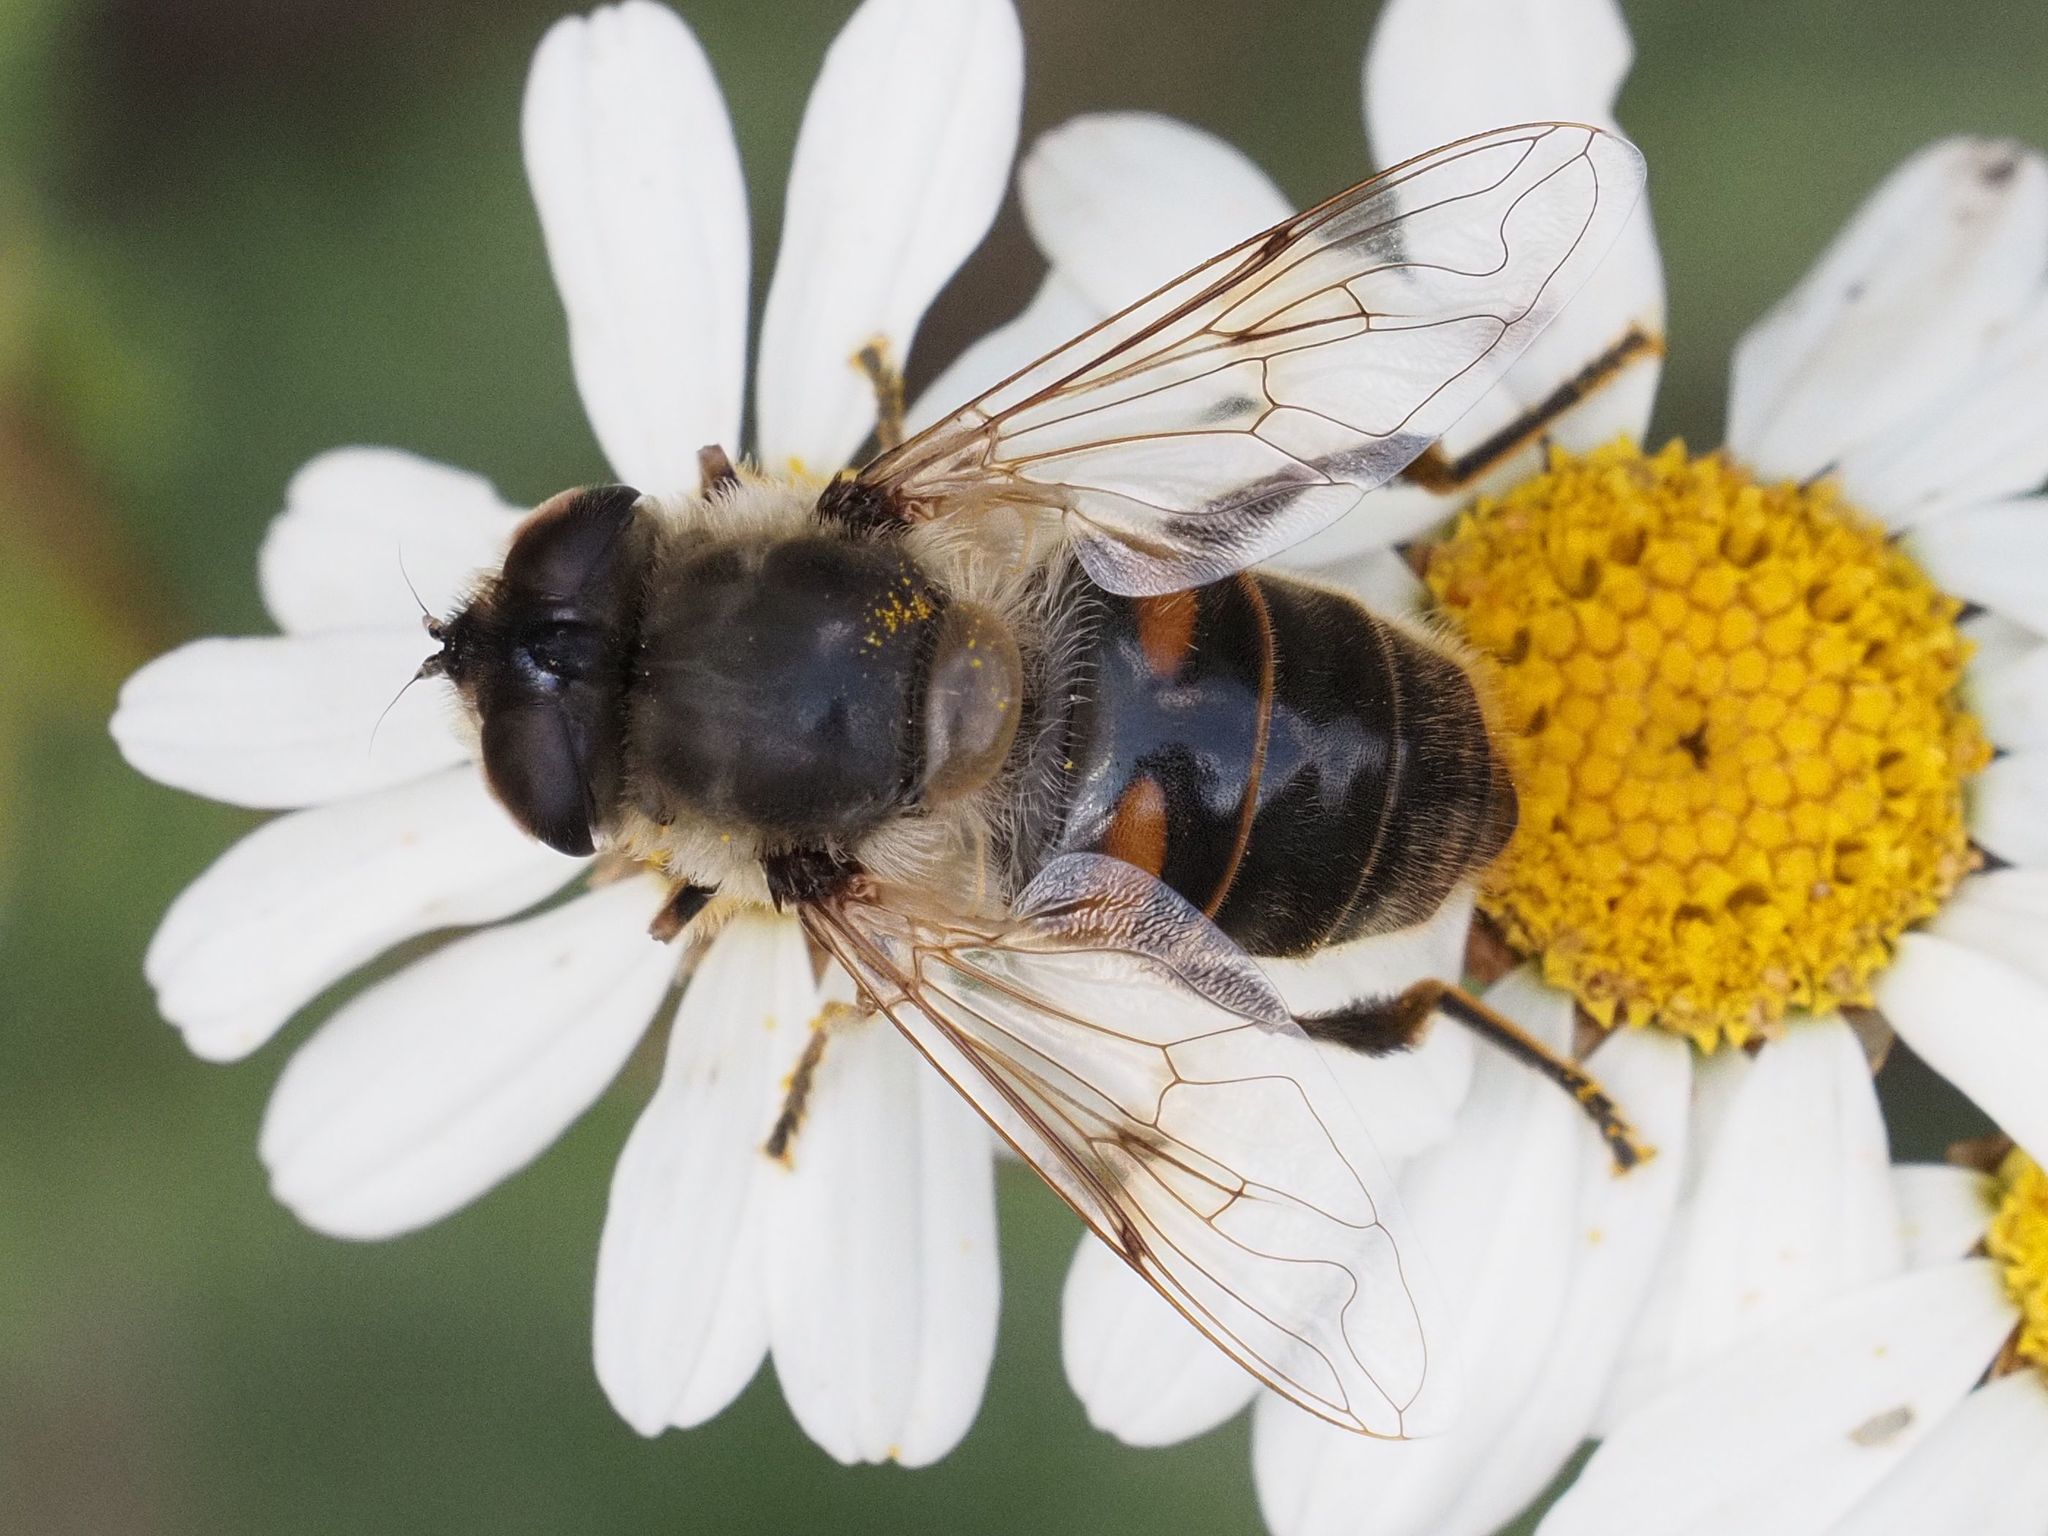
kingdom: Animalia
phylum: Arthropoda
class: Insecta
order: Diptera
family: Syrphidae
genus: Eristalis
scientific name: Eristalis tenax
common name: Drone fly
